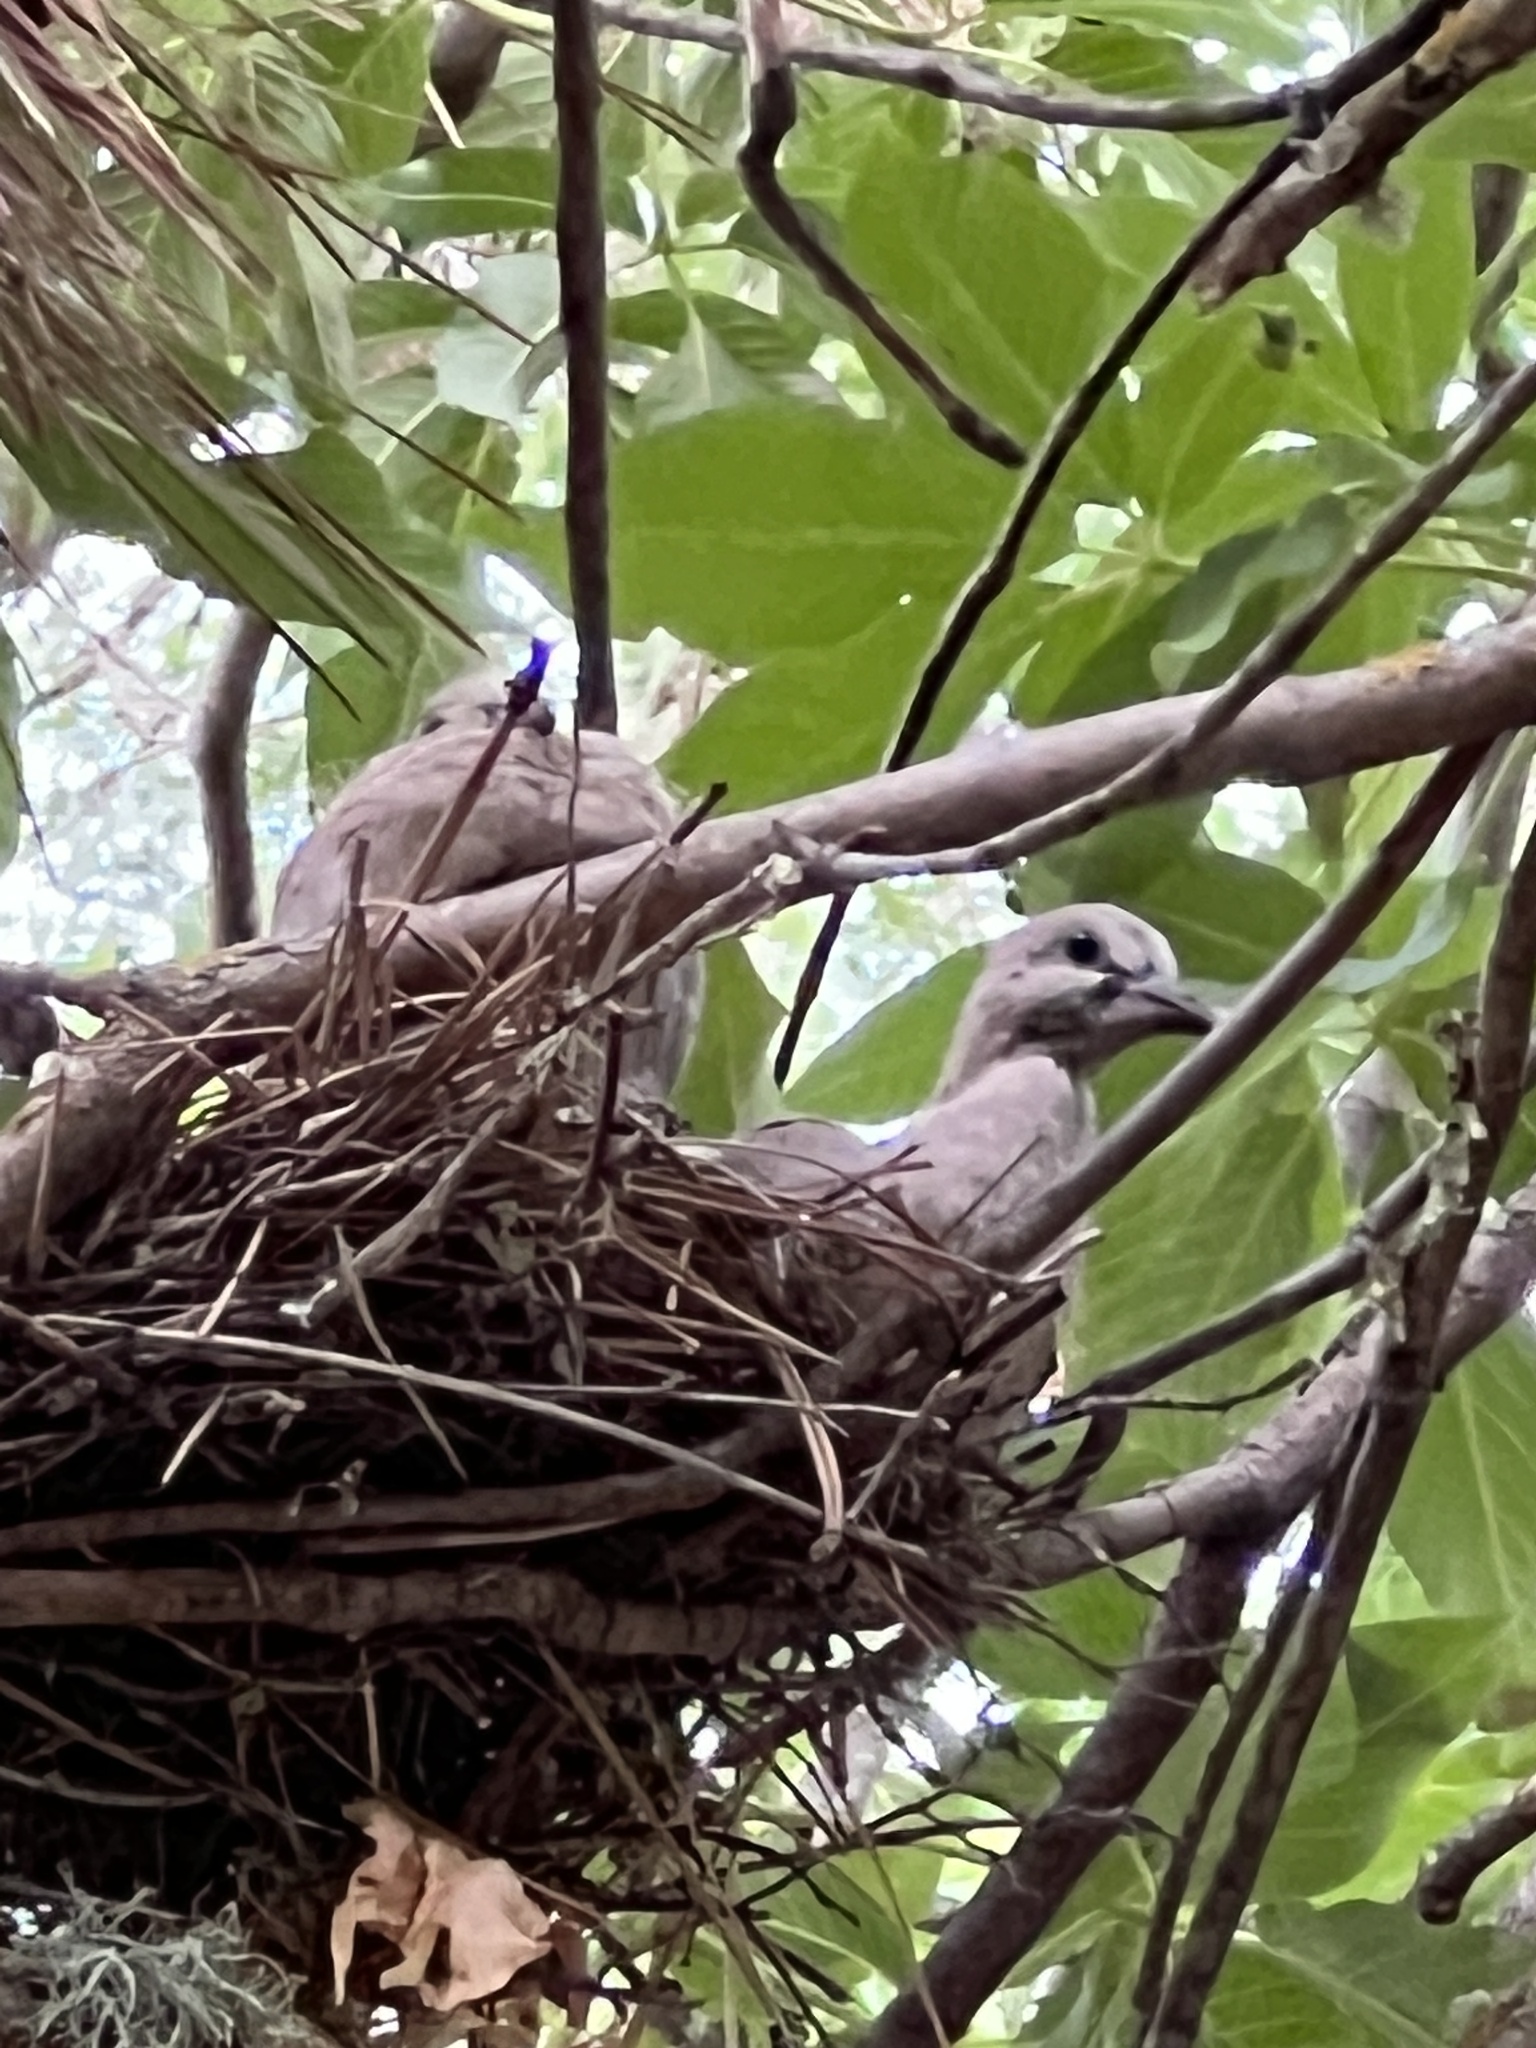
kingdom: Animalia
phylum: Chordata
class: Aves
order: Columbiformes
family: Columbidae
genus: Streptopelia
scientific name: Streptopelia decaocto
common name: Eurasian collared dove
